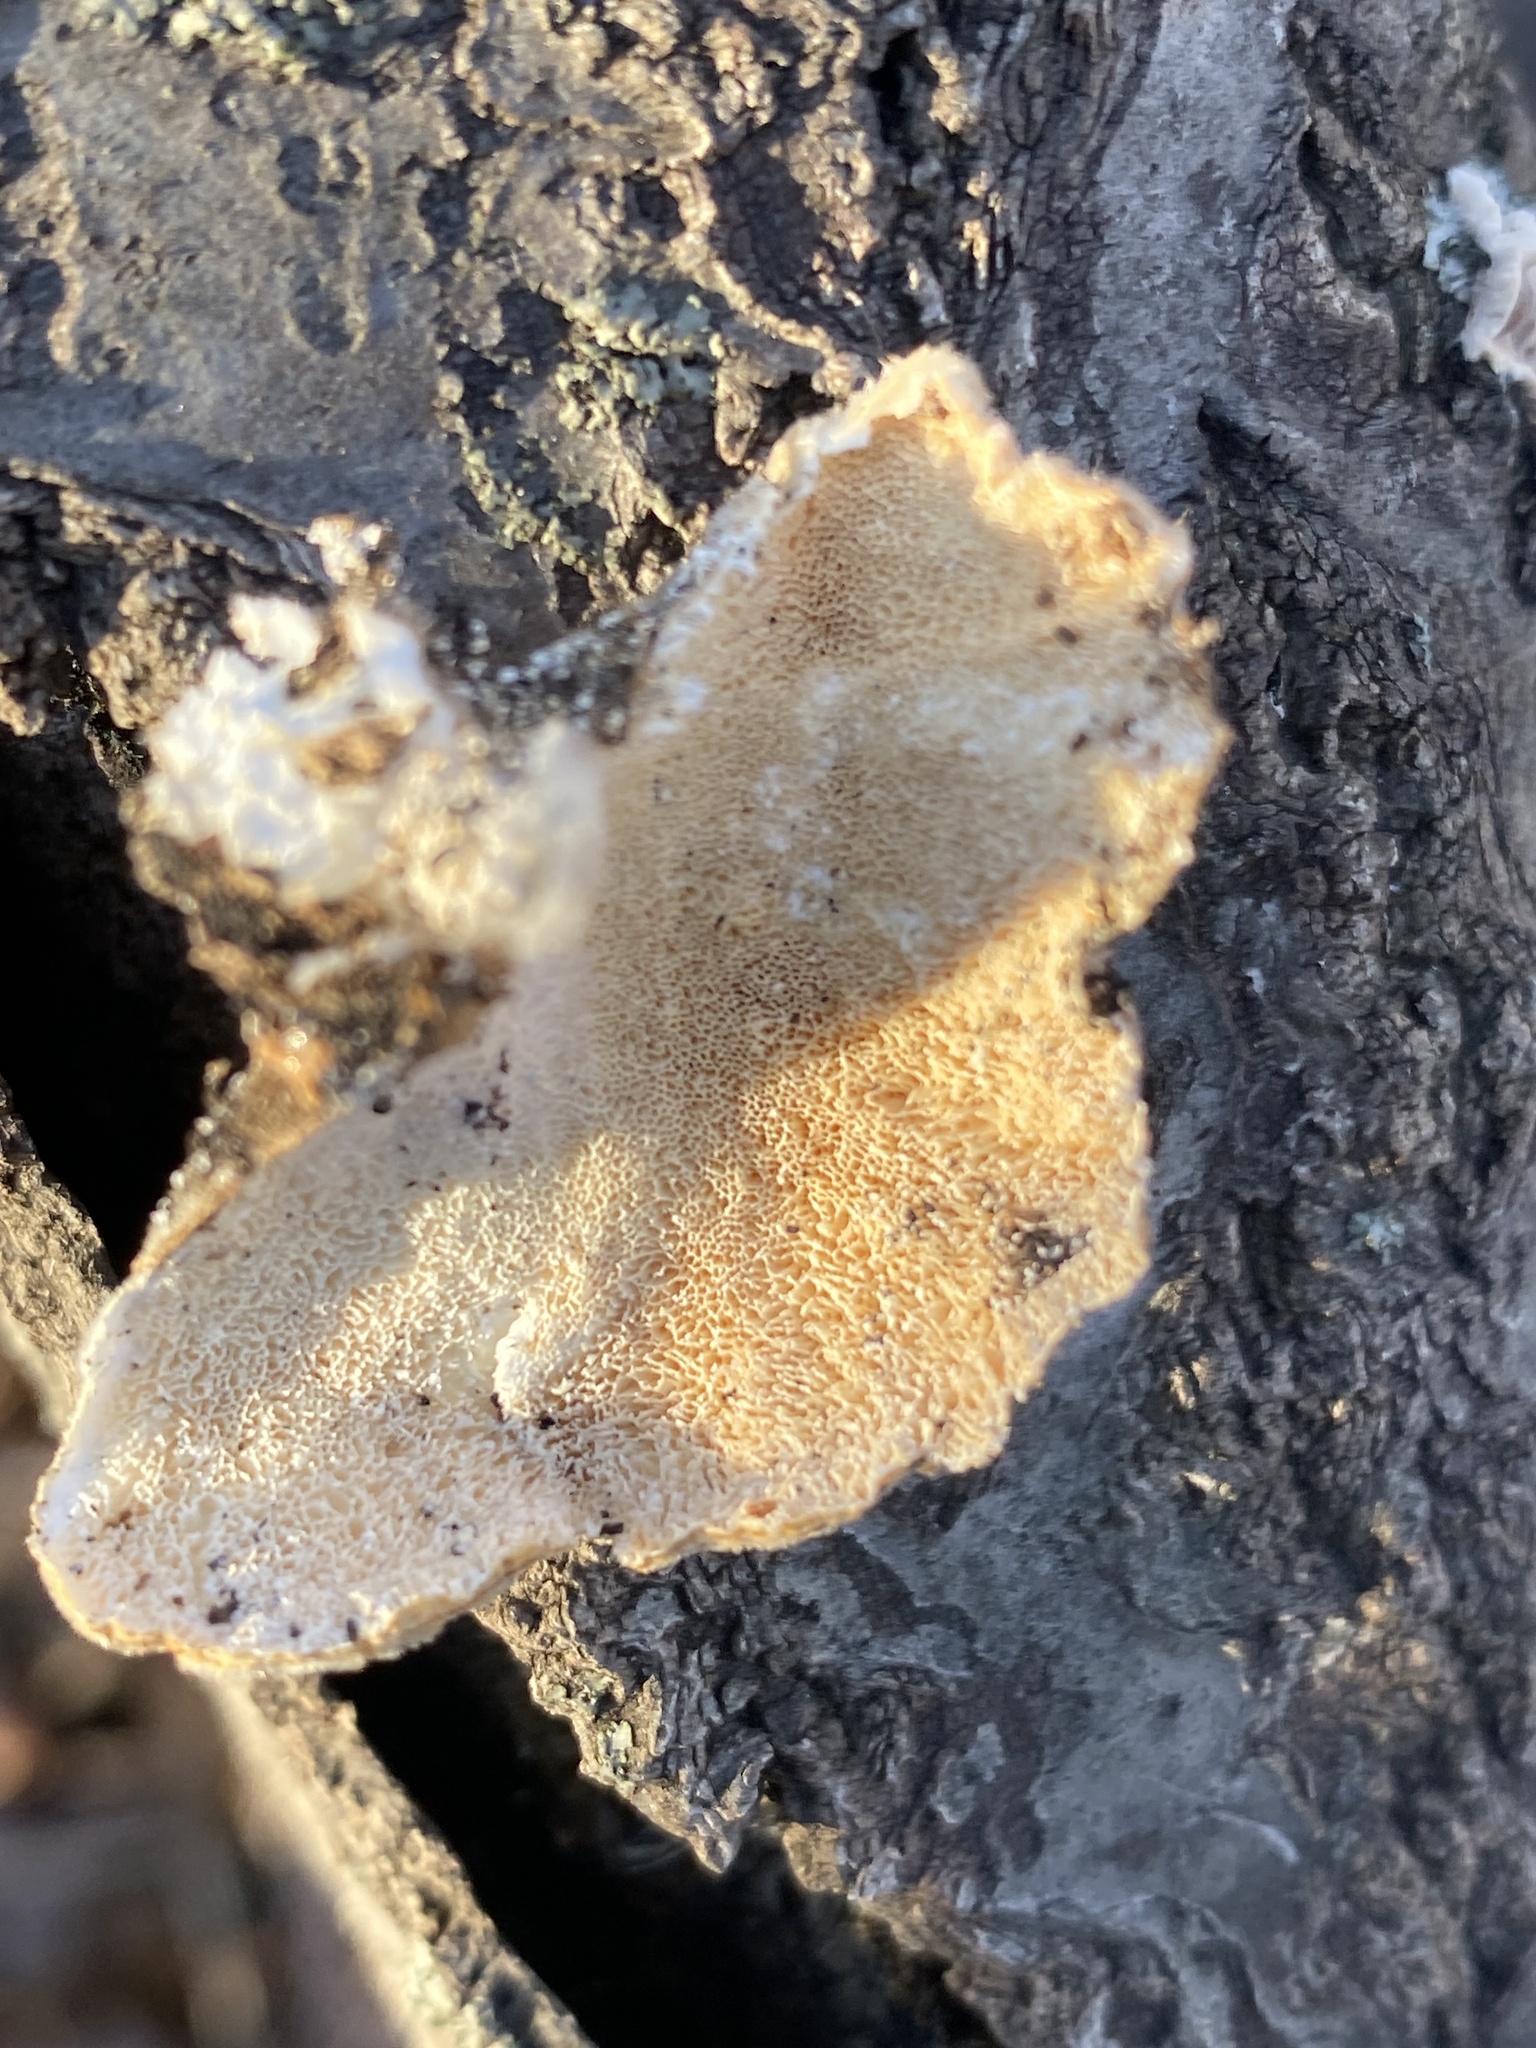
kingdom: Fungi
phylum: Basidiomycota
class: Agaricomycetes
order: Polyporales
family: Polyporaceae
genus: Trametes
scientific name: Trametes versicolor
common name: Turkeytail
